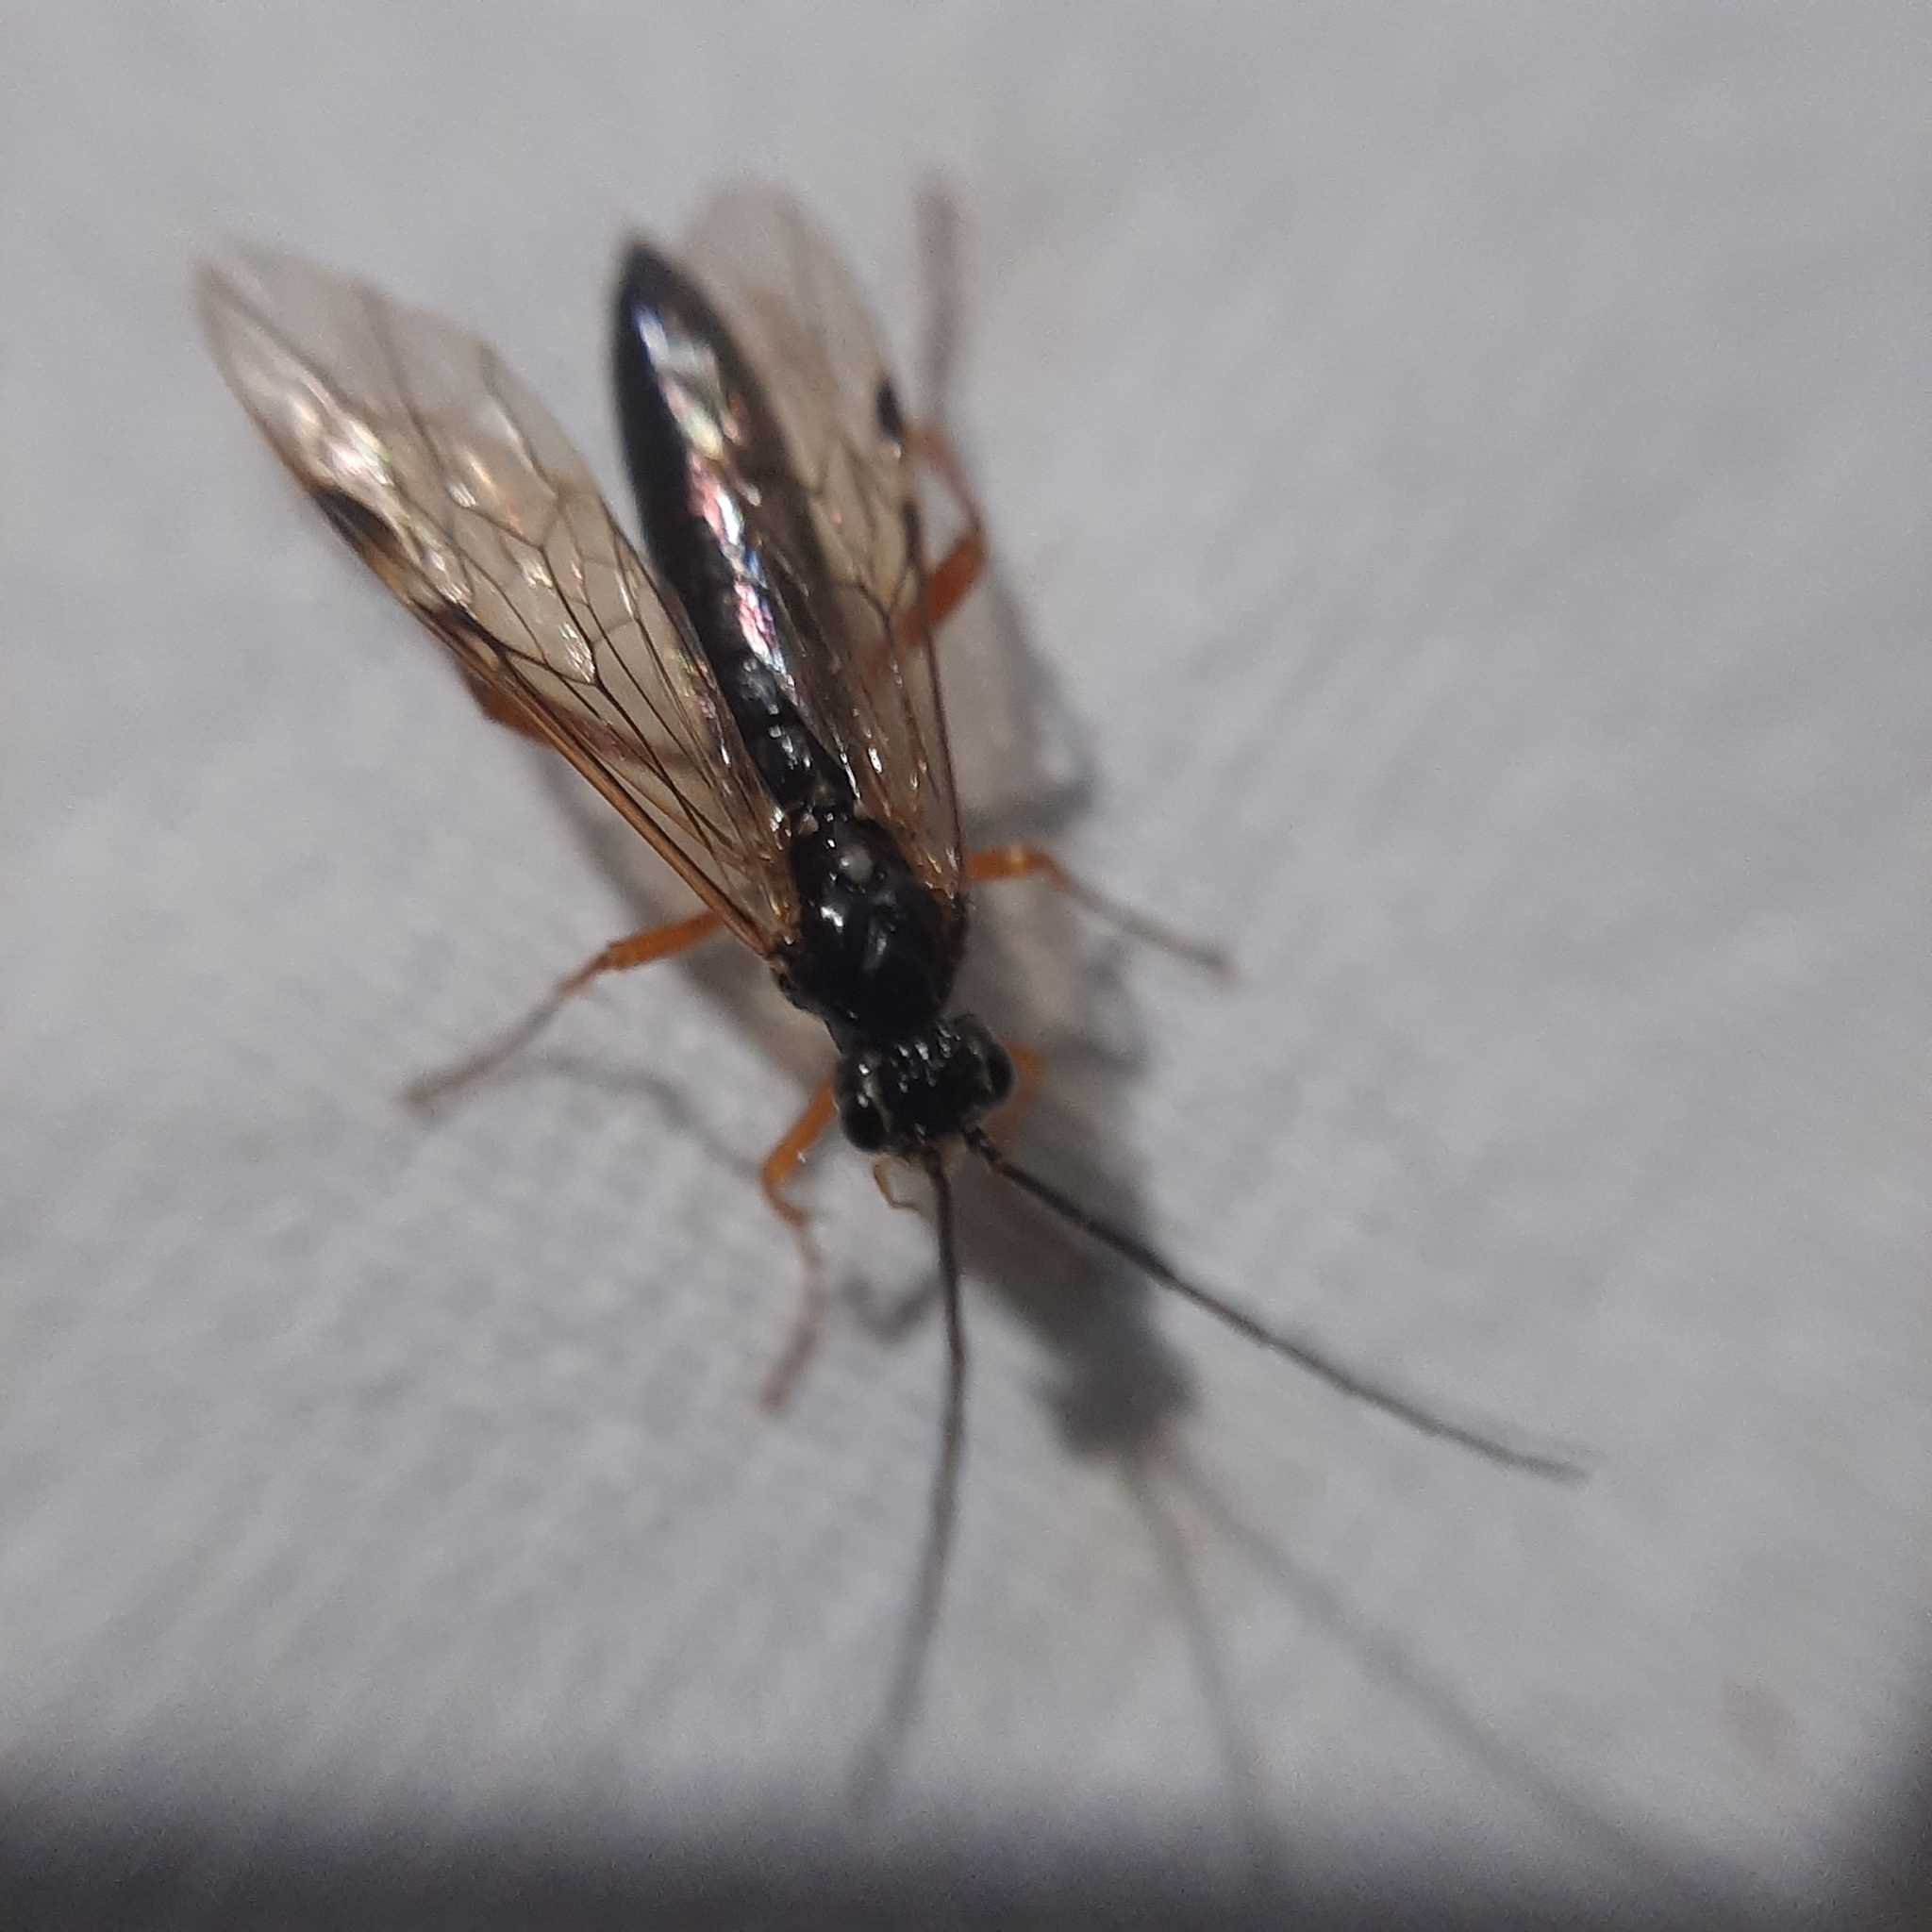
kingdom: Animalia
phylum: Arthropoda
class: Insecta
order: Hymenoptera
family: Tenthredinidae
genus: Tenthredopsis
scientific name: Tenthredopsis
